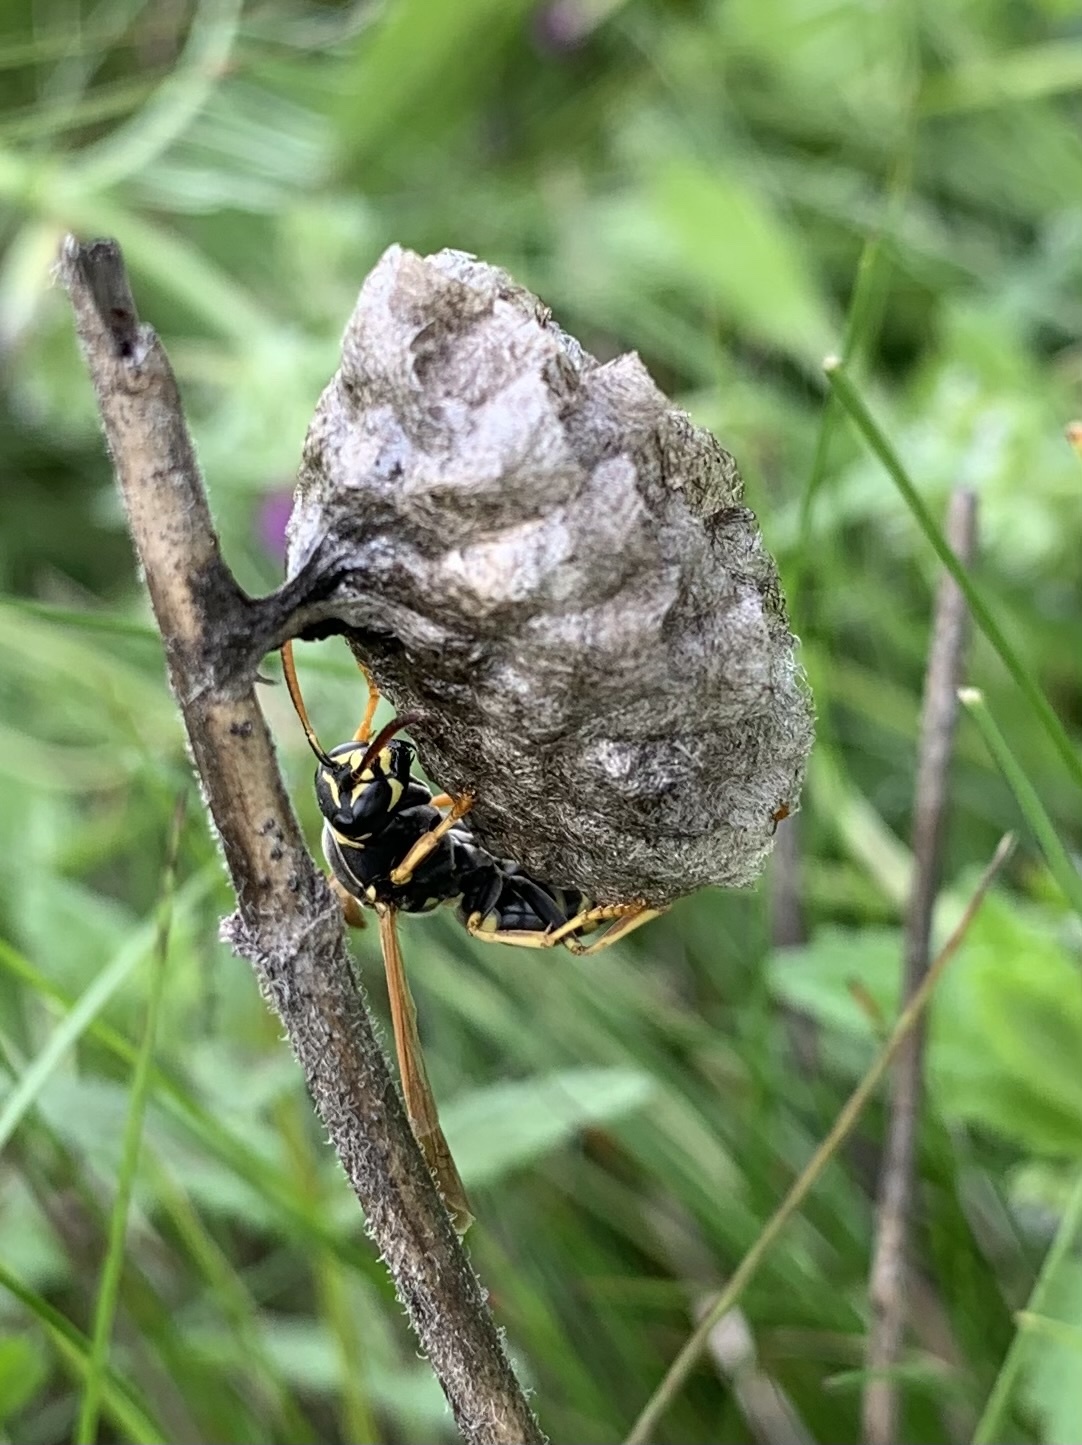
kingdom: Animalia
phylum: Arthropoda
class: Insecta
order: Hymenoptera
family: Eumenidae
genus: Polistes
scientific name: Polistes nimpha
